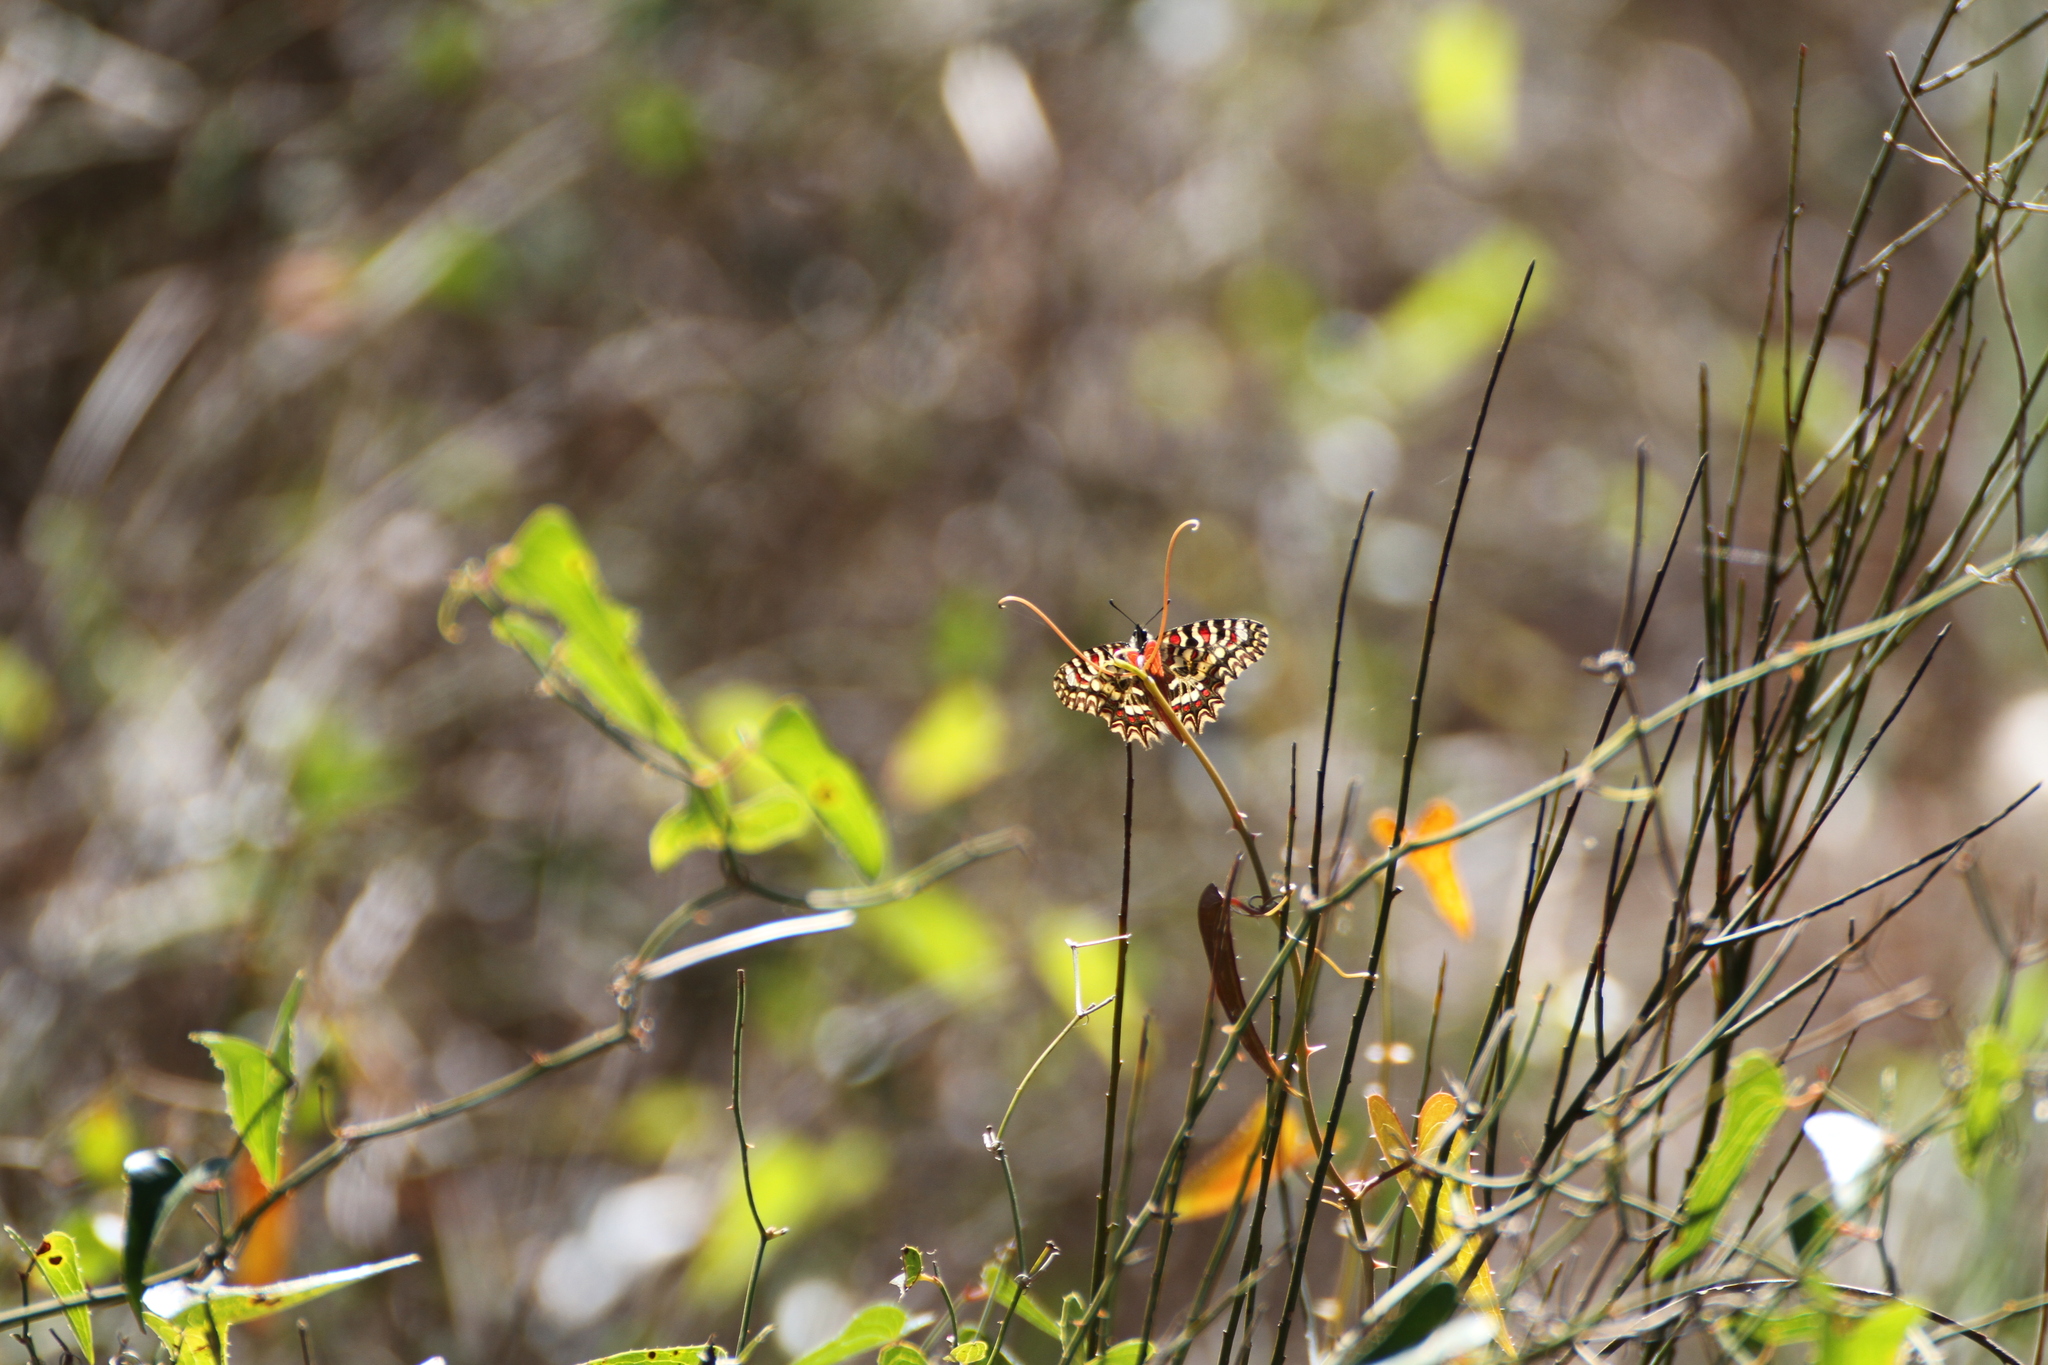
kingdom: Animalia
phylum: Arthropoda
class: Insecta
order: Lepidoptera
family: Papilionidae
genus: Zerynthia
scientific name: Zerynthia rumina
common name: Spanish festoon
